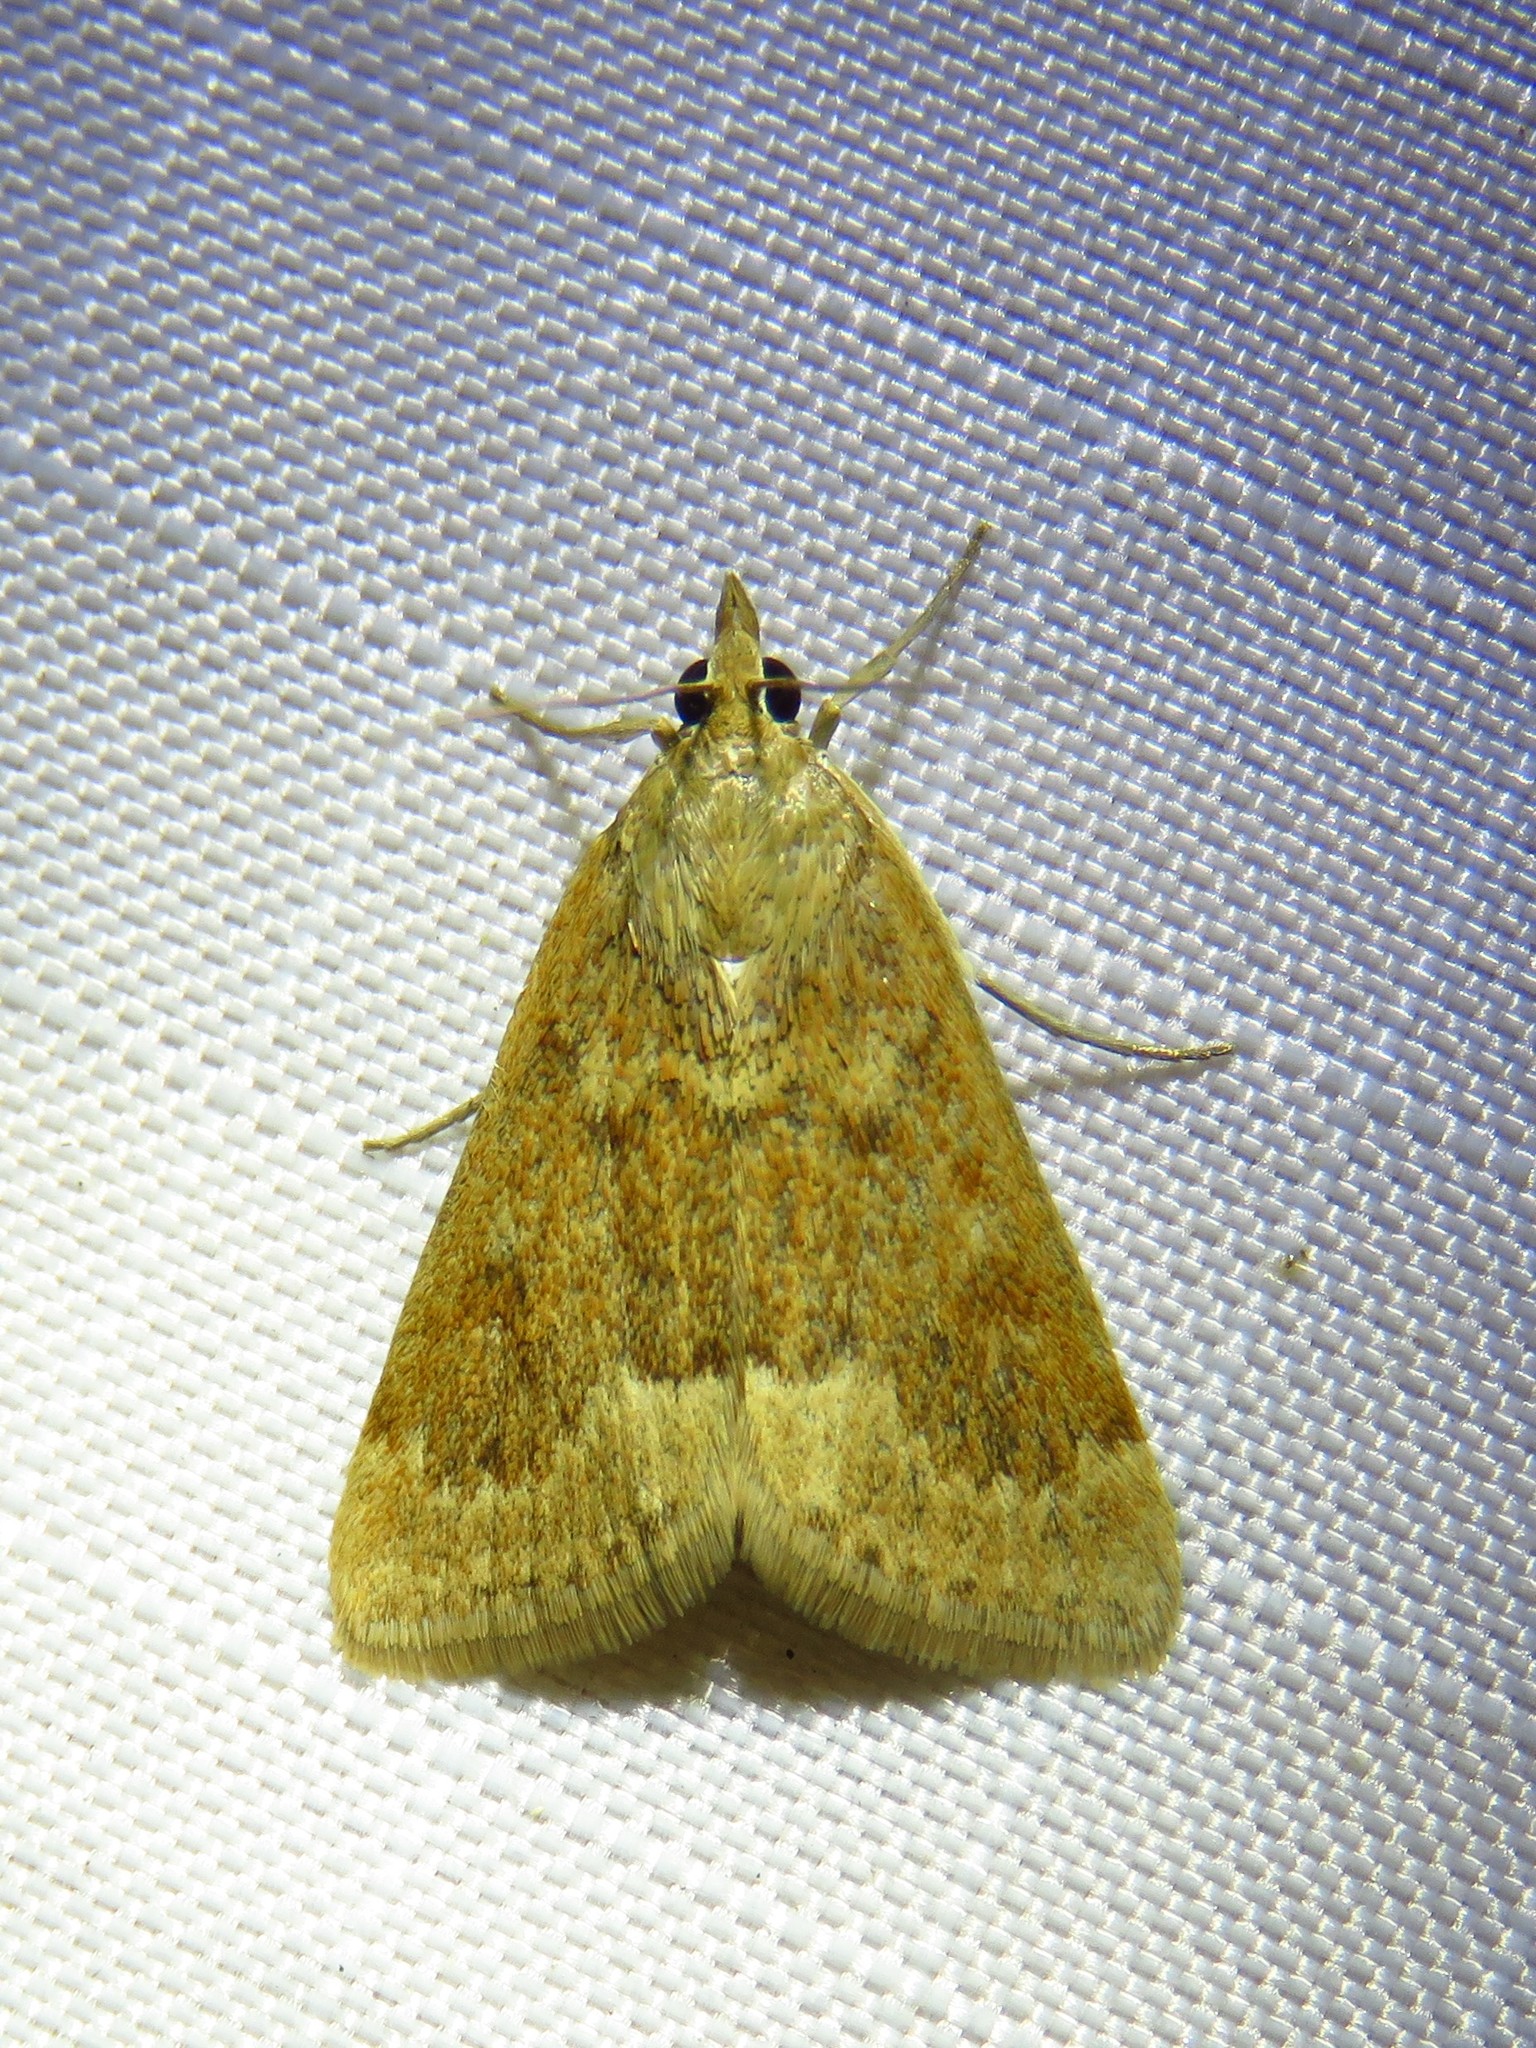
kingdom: Animalia
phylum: Arthropoda
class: Insecta
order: Lepidoptera
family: Crambidae
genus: Achyra
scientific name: Achyra rantalis
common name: Garden webworm
